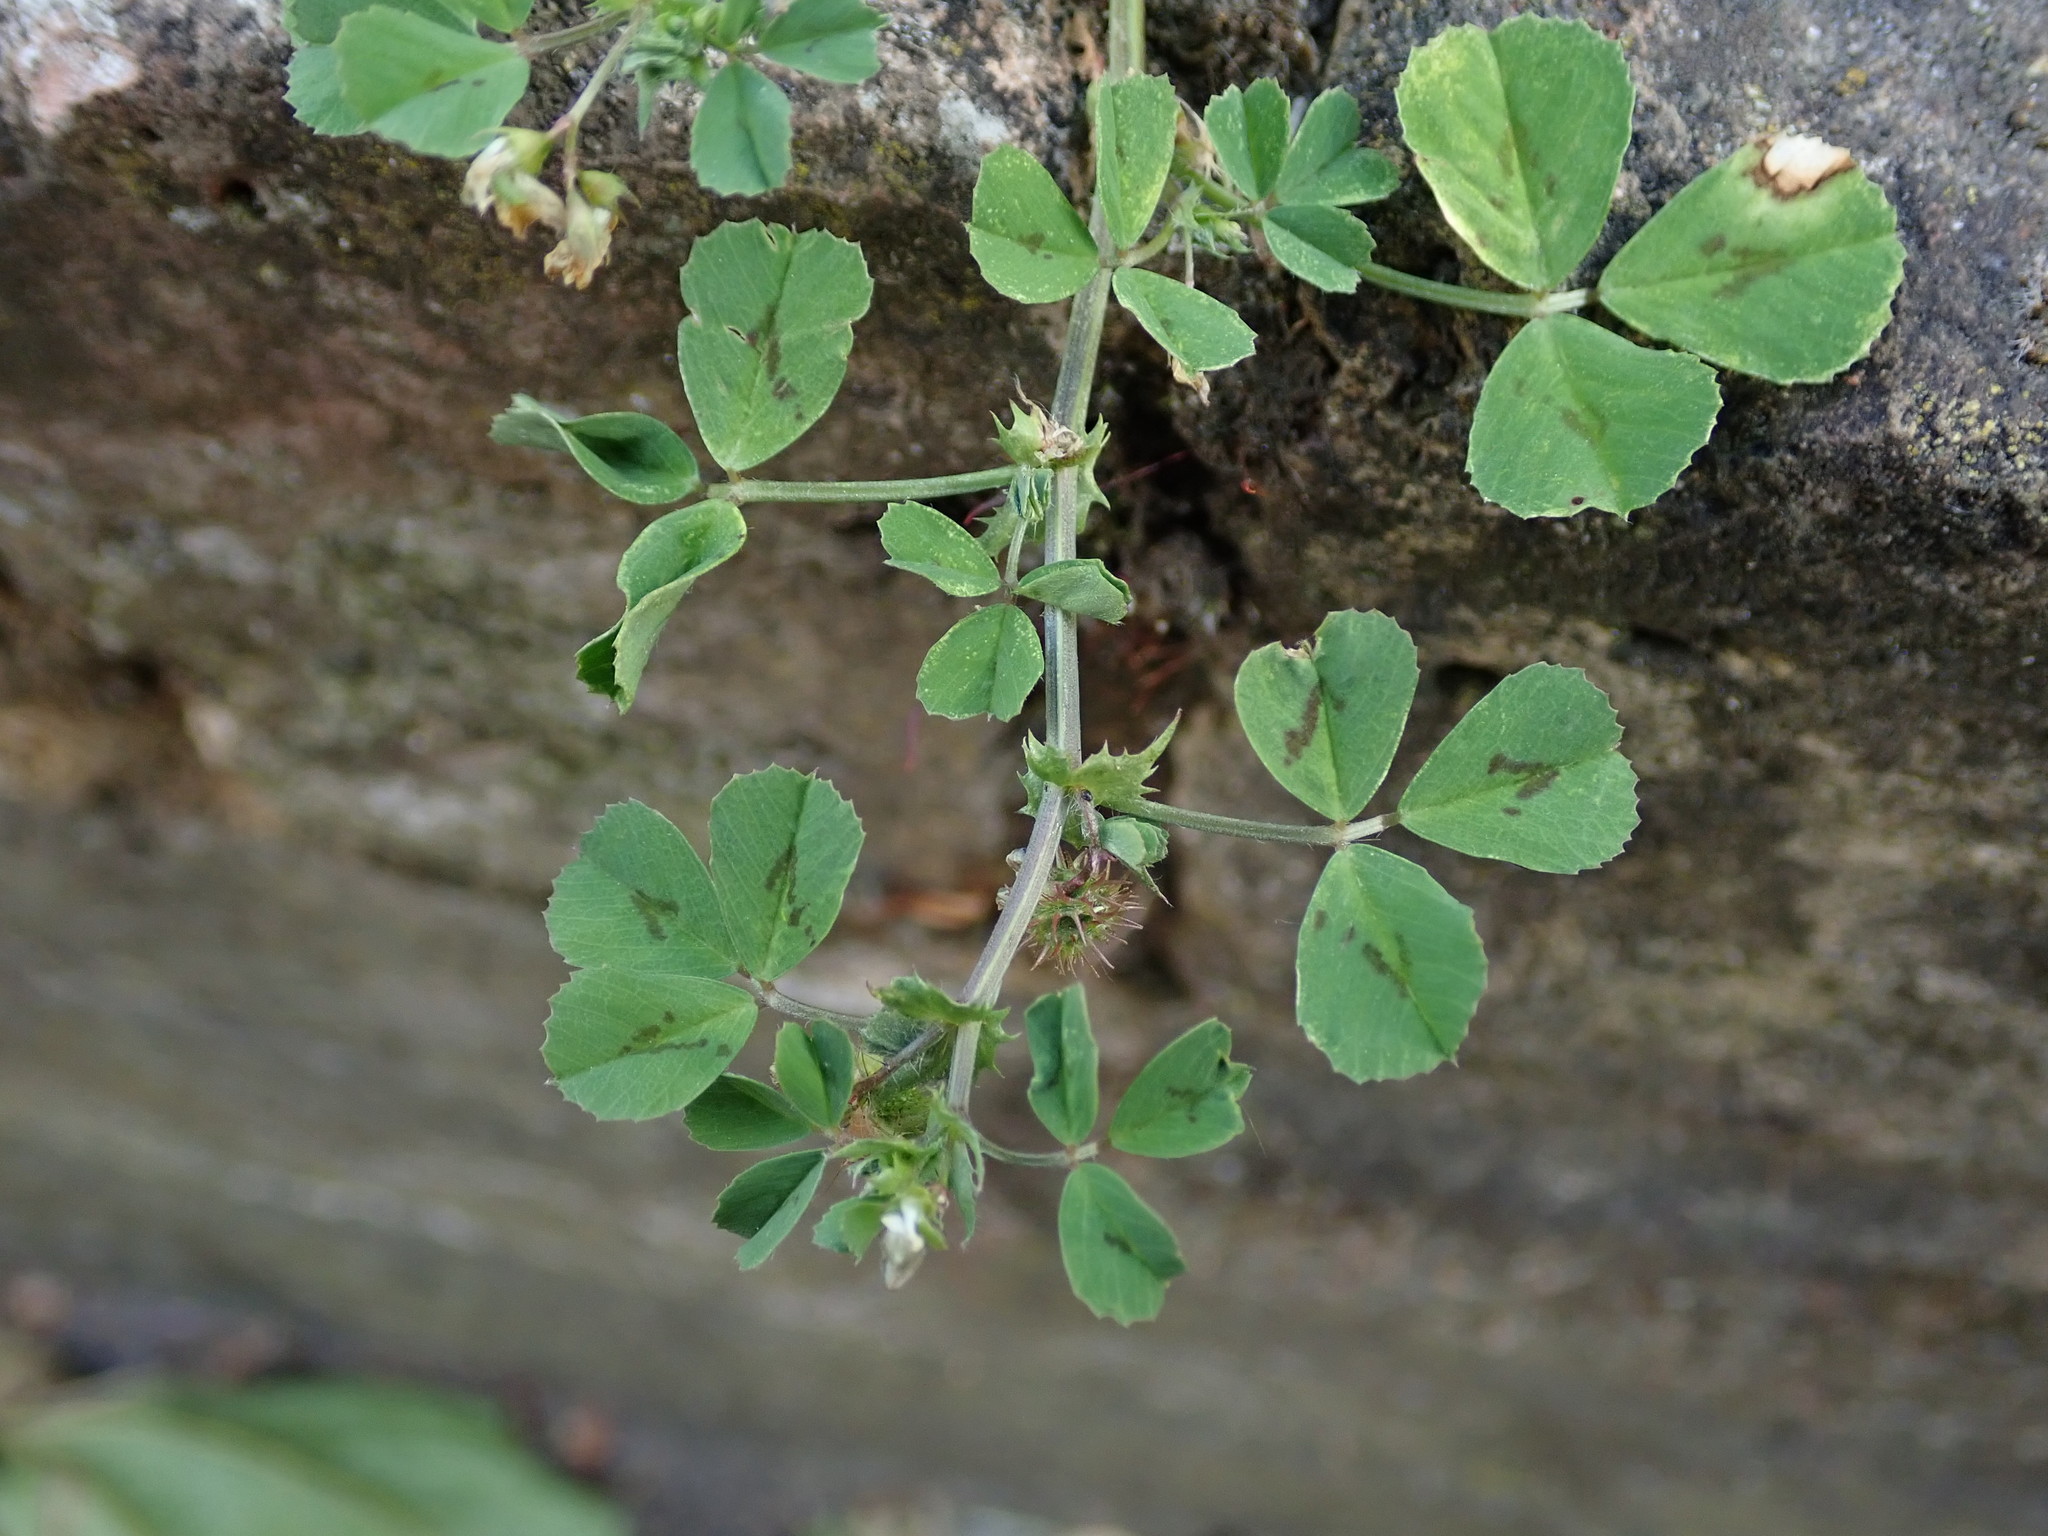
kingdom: Plantae
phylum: Tracheophyta
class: Magnoliopsida
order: Fabales
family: Fabaceae
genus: Medicago
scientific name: Medicago arabica
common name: Spotted medick
